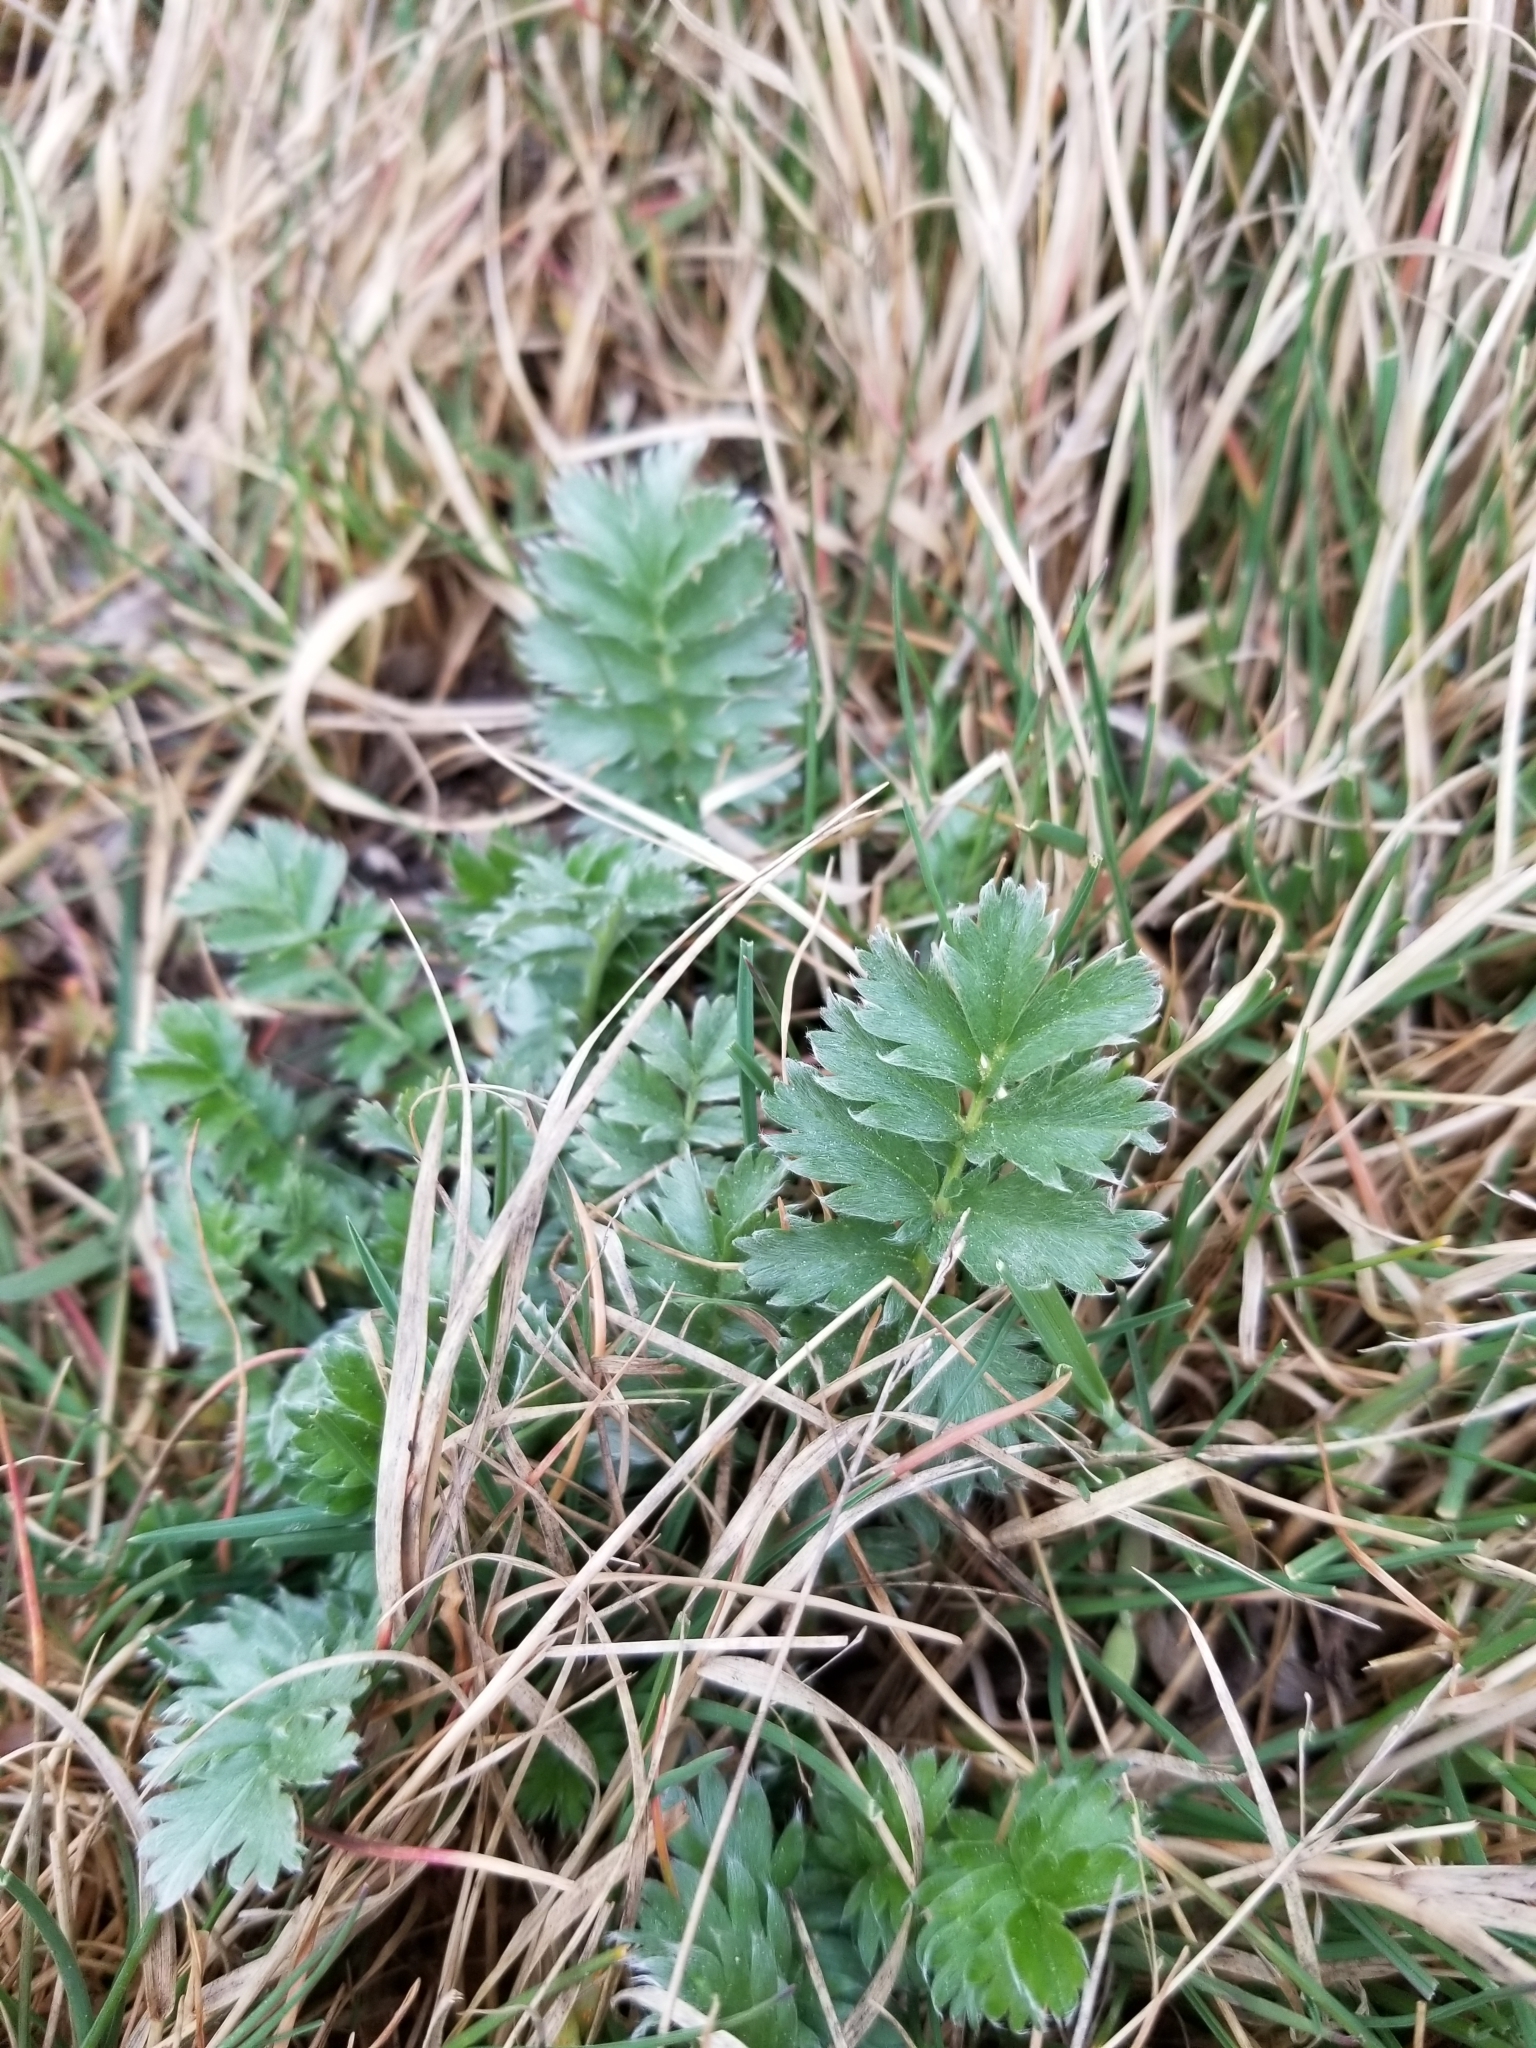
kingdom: Plantae
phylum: Tracheophyta
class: Magnoliopsida
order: Rosales
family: Rosaceae
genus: Argentina
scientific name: Argentina anserina
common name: Common silverweed
